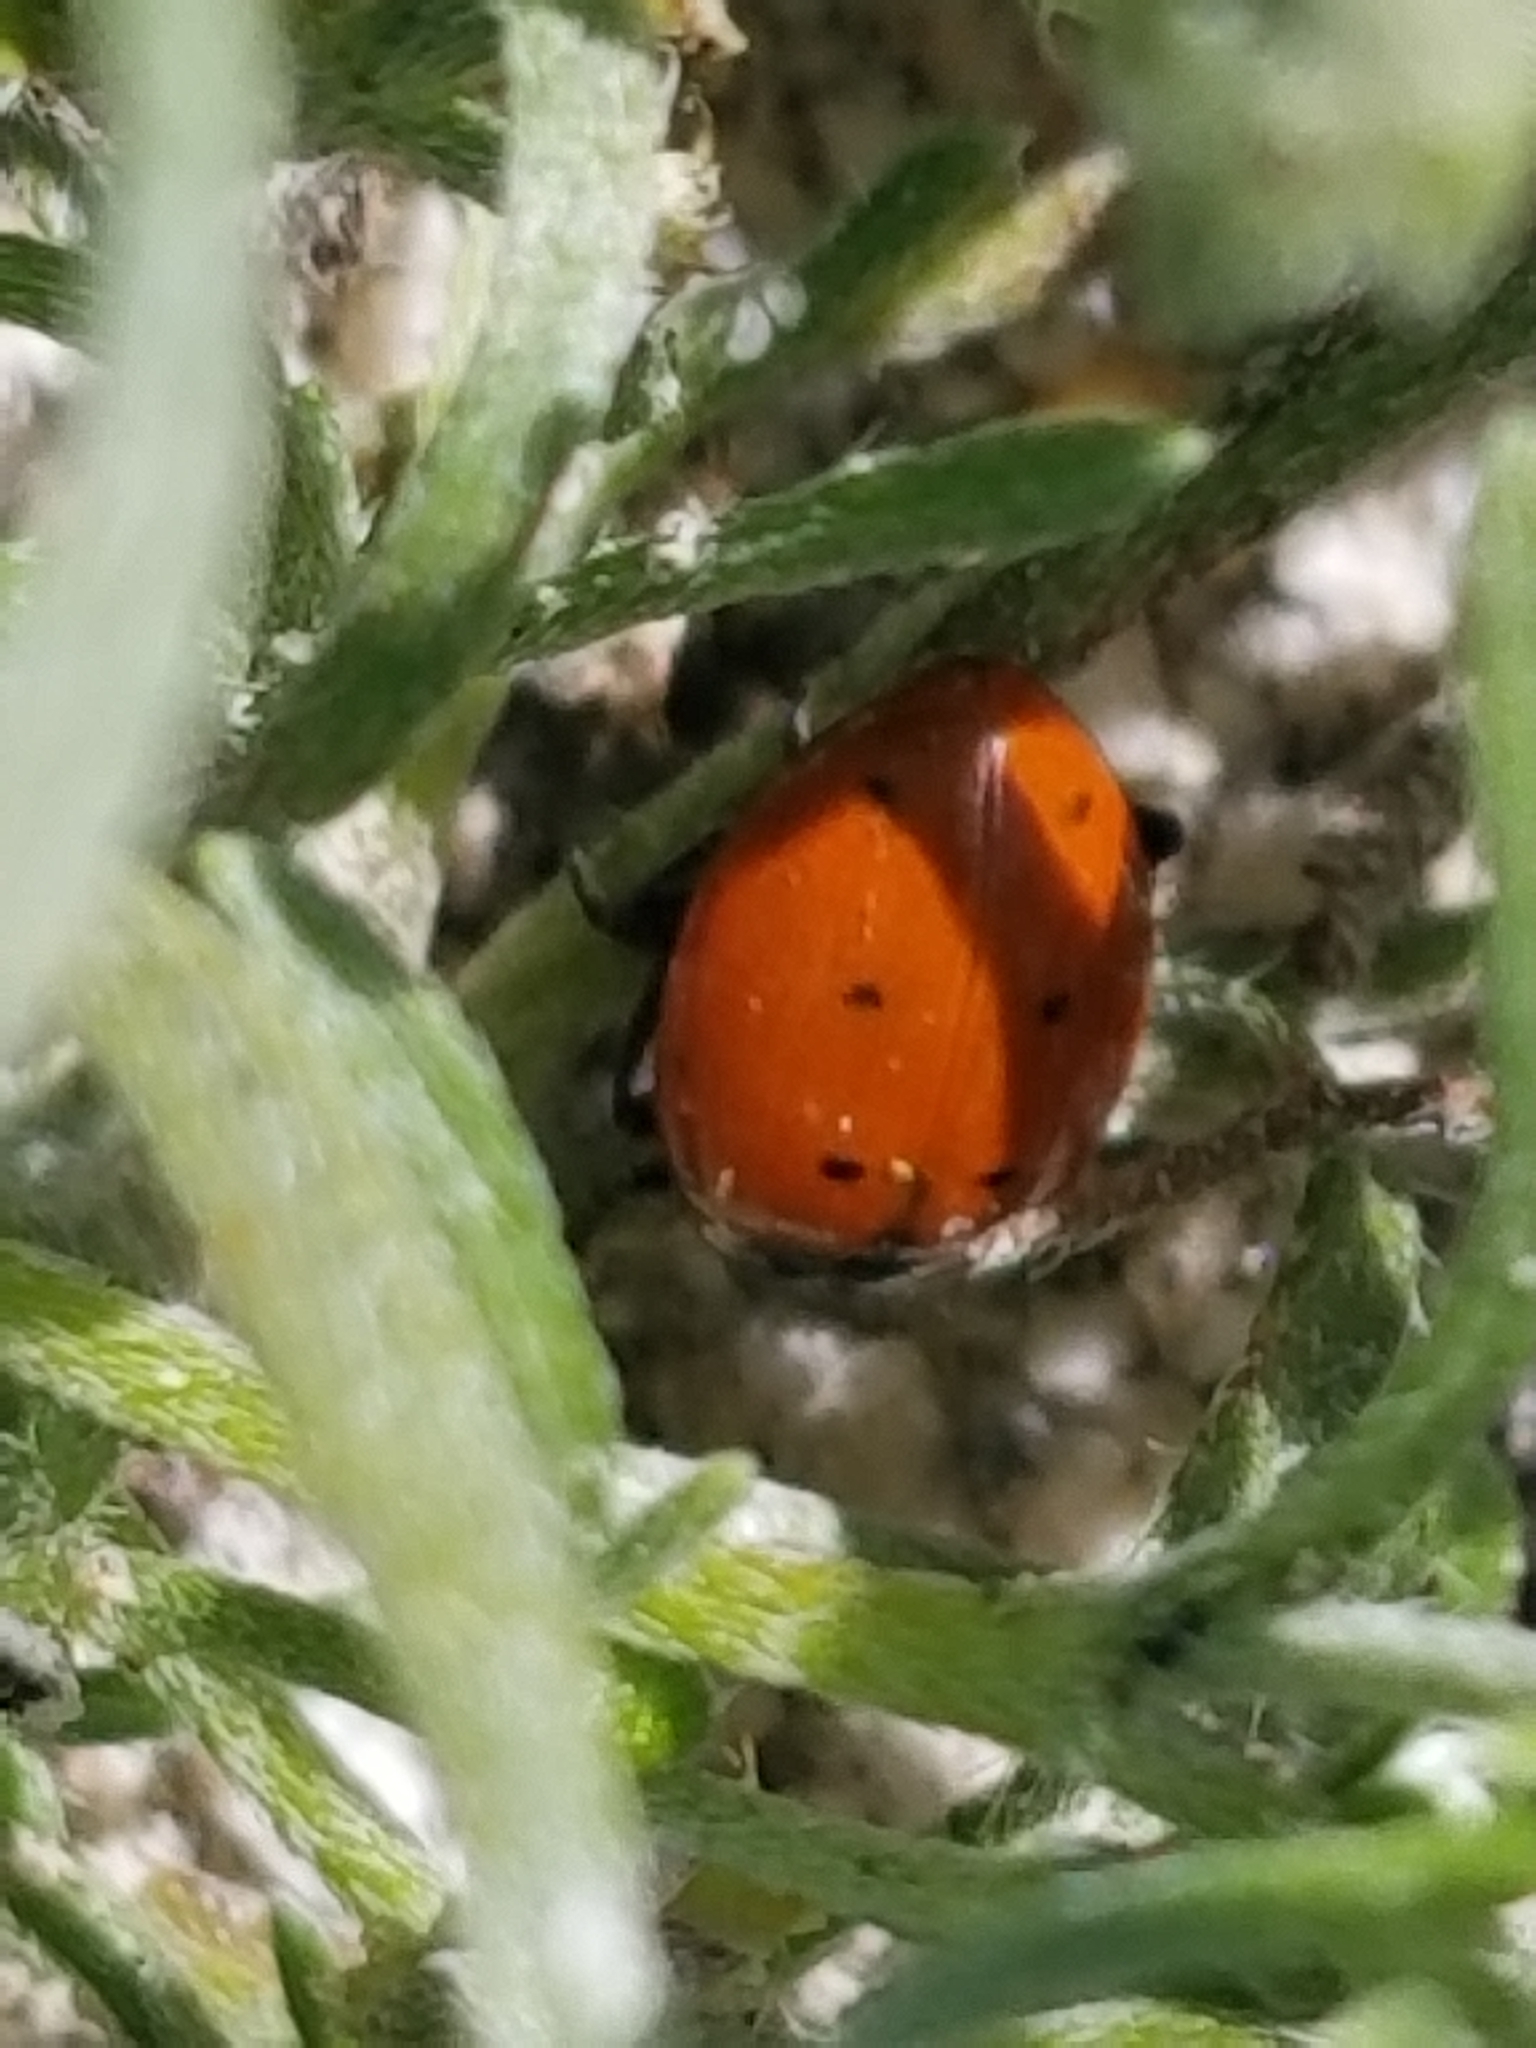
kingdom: Animalia
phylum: Arthropoda
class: Insecta
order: Coleoptera
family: Coccinellidae
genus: Coccinella
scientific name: Coccinella septempunctata
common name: Sevenspotted lady beetle
